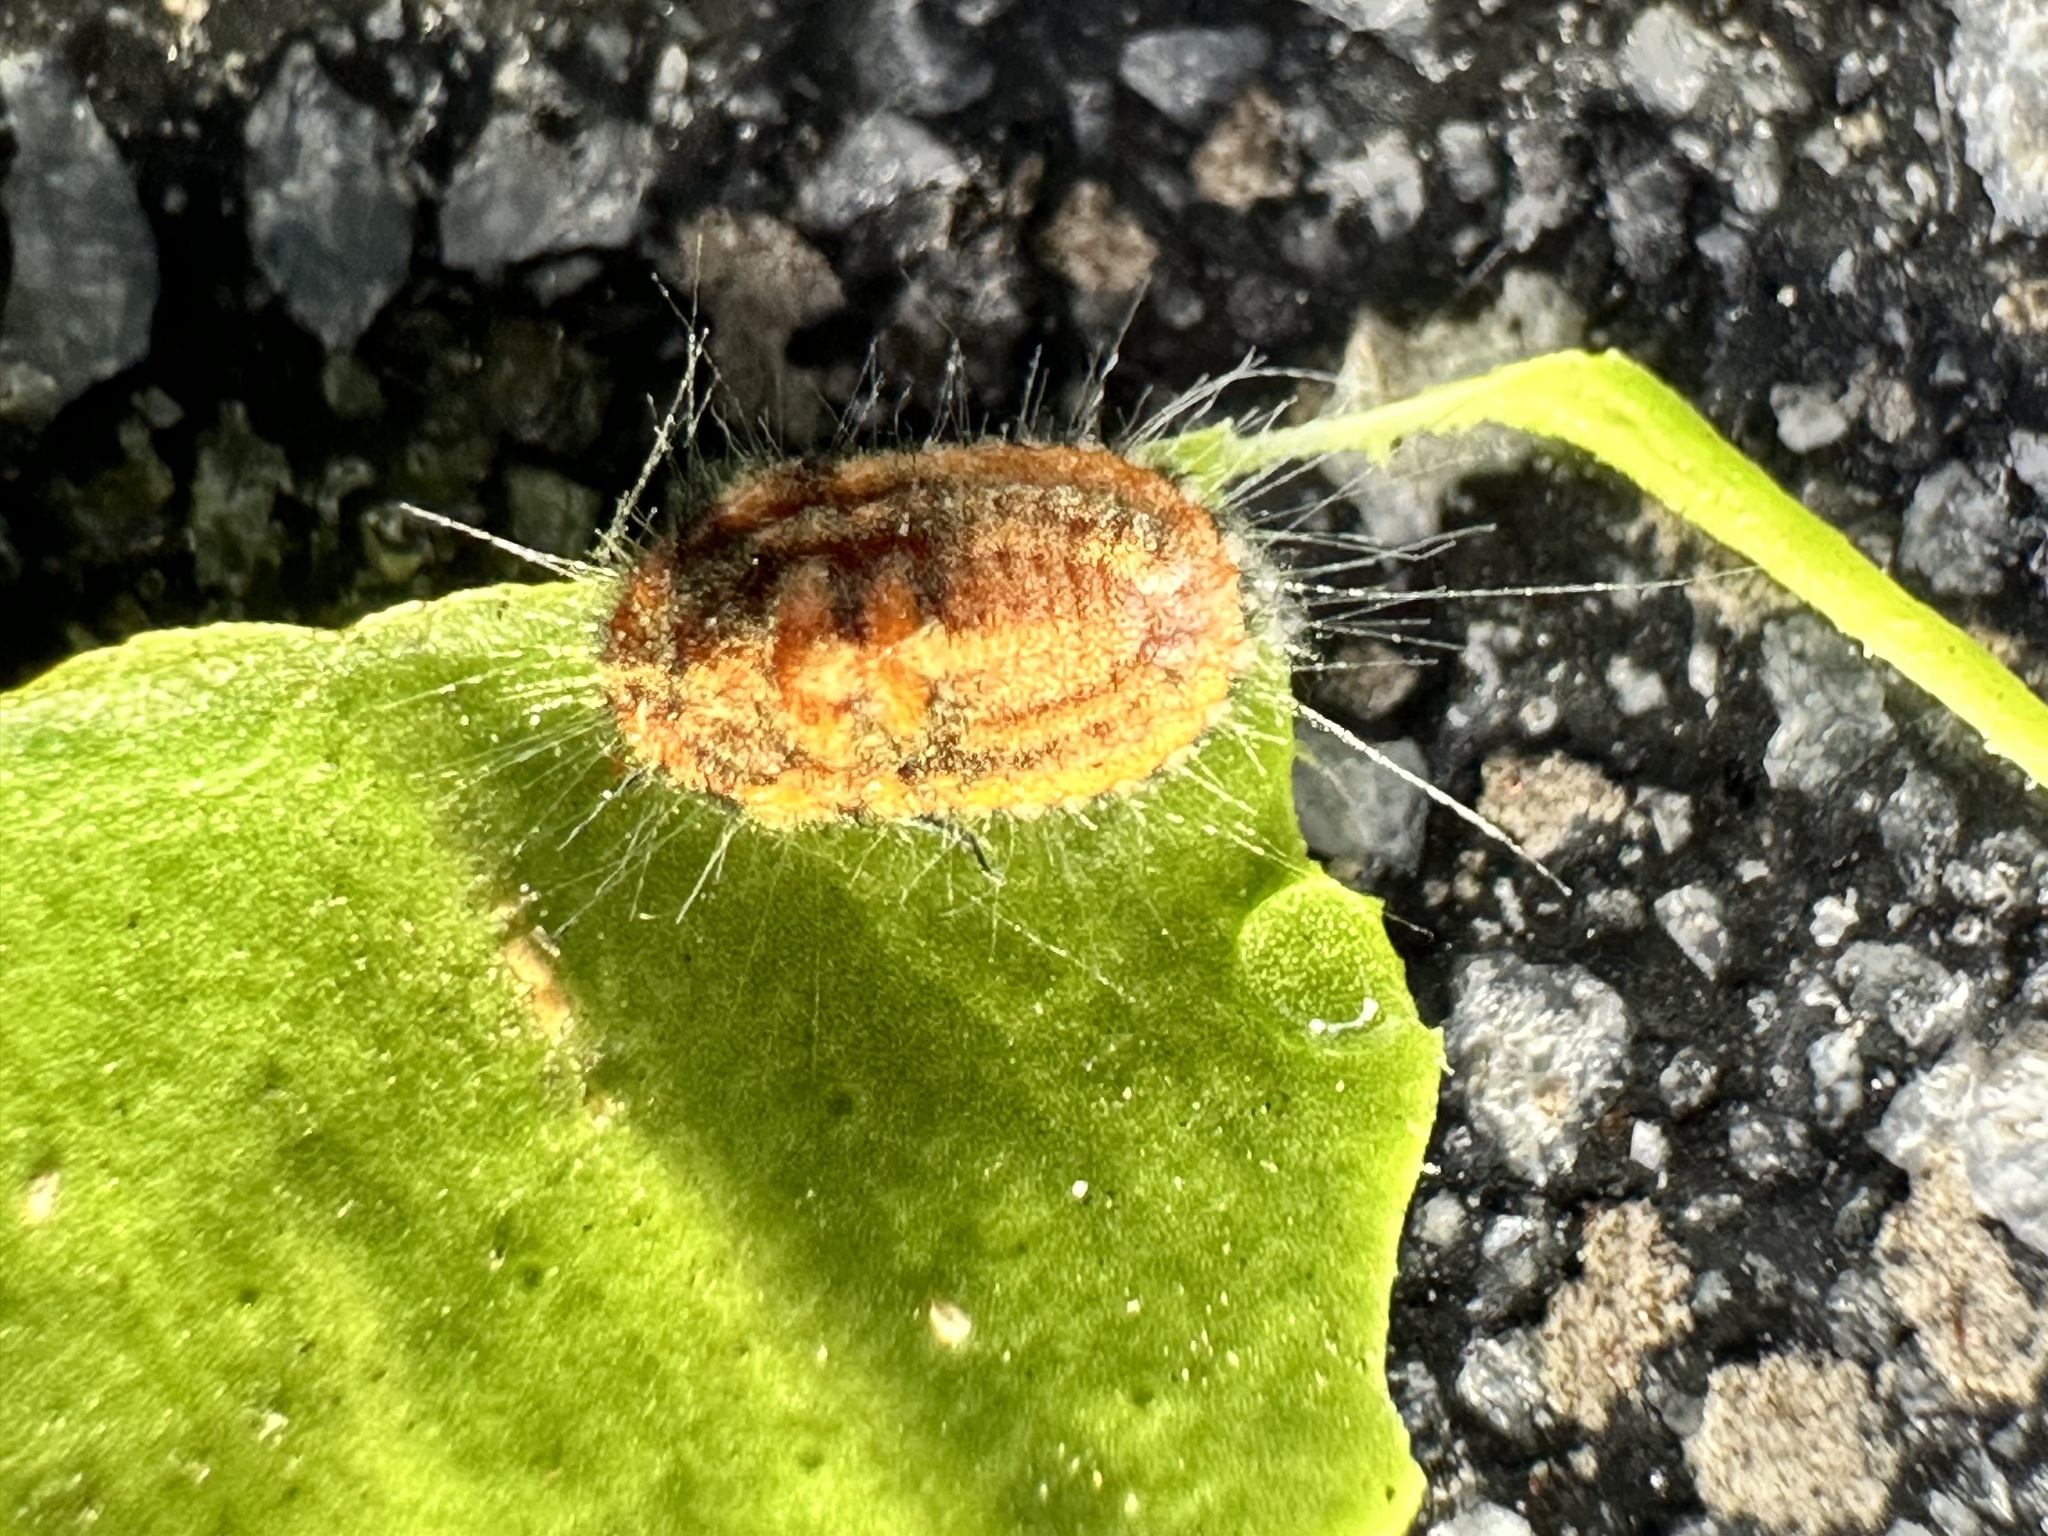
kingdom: Animalia
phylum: Arthropoda
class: Insecta
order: Hemiptera
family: Margarodidae
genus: Icerya
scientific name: Icerya purchasi
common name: Cottony cushion scale
